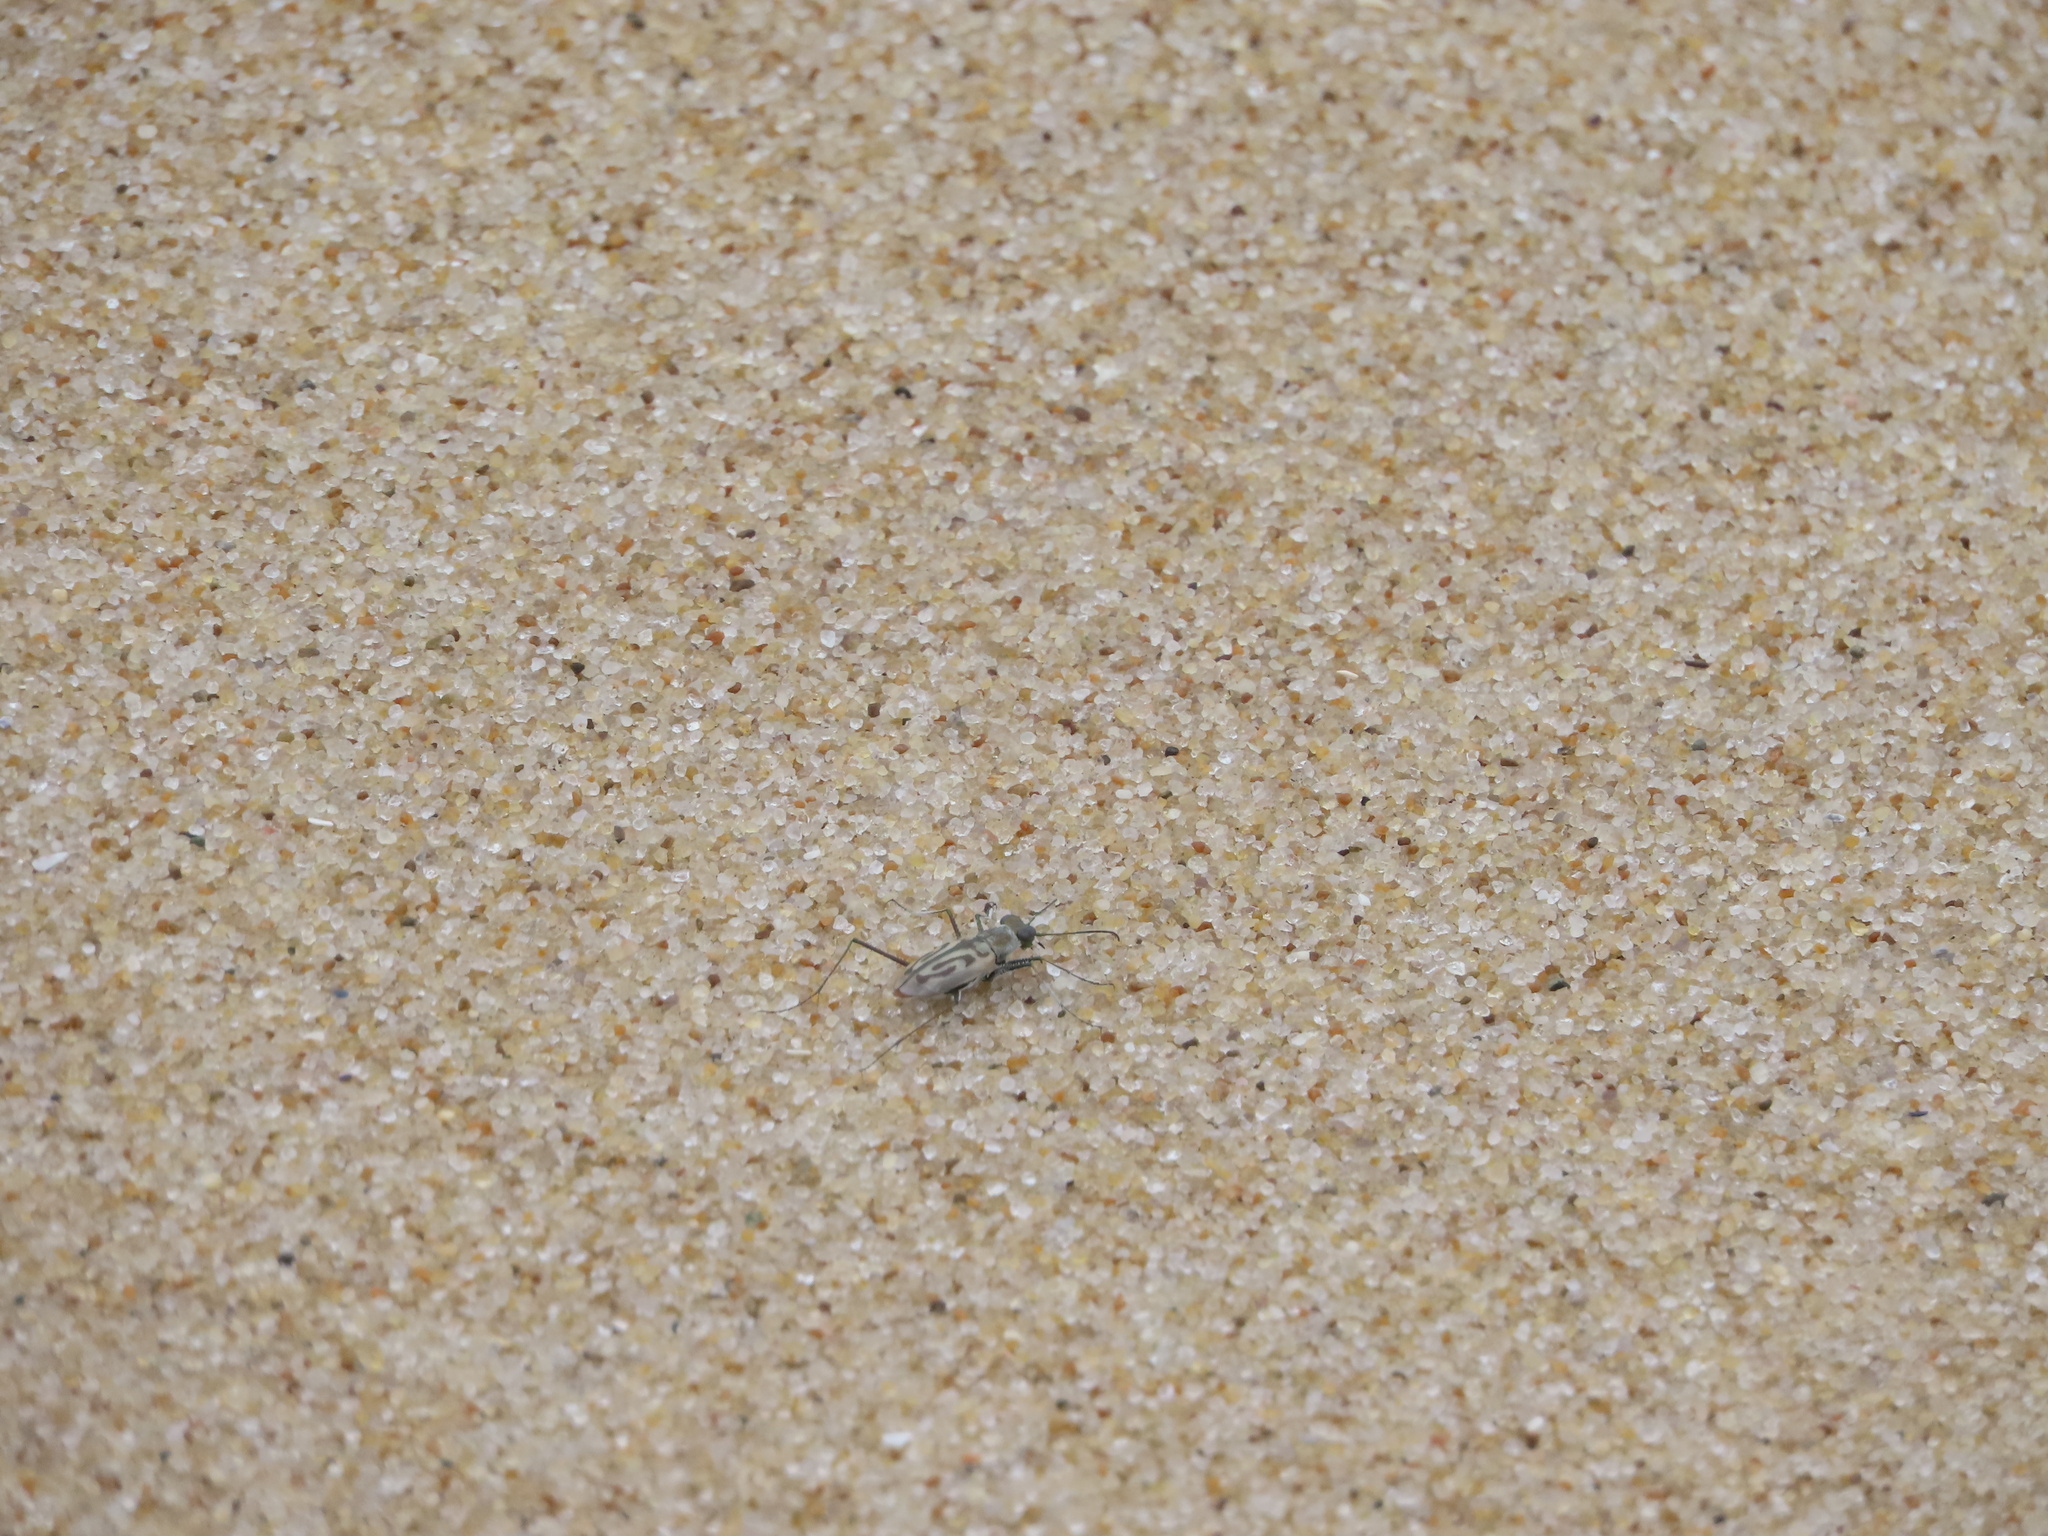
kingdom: Animalia
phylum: Arthropoda
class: Insecta
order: Coleoptera
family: Carabidae
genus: Habroscelimorpha
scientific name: Habroscelimorpha dorsalis
